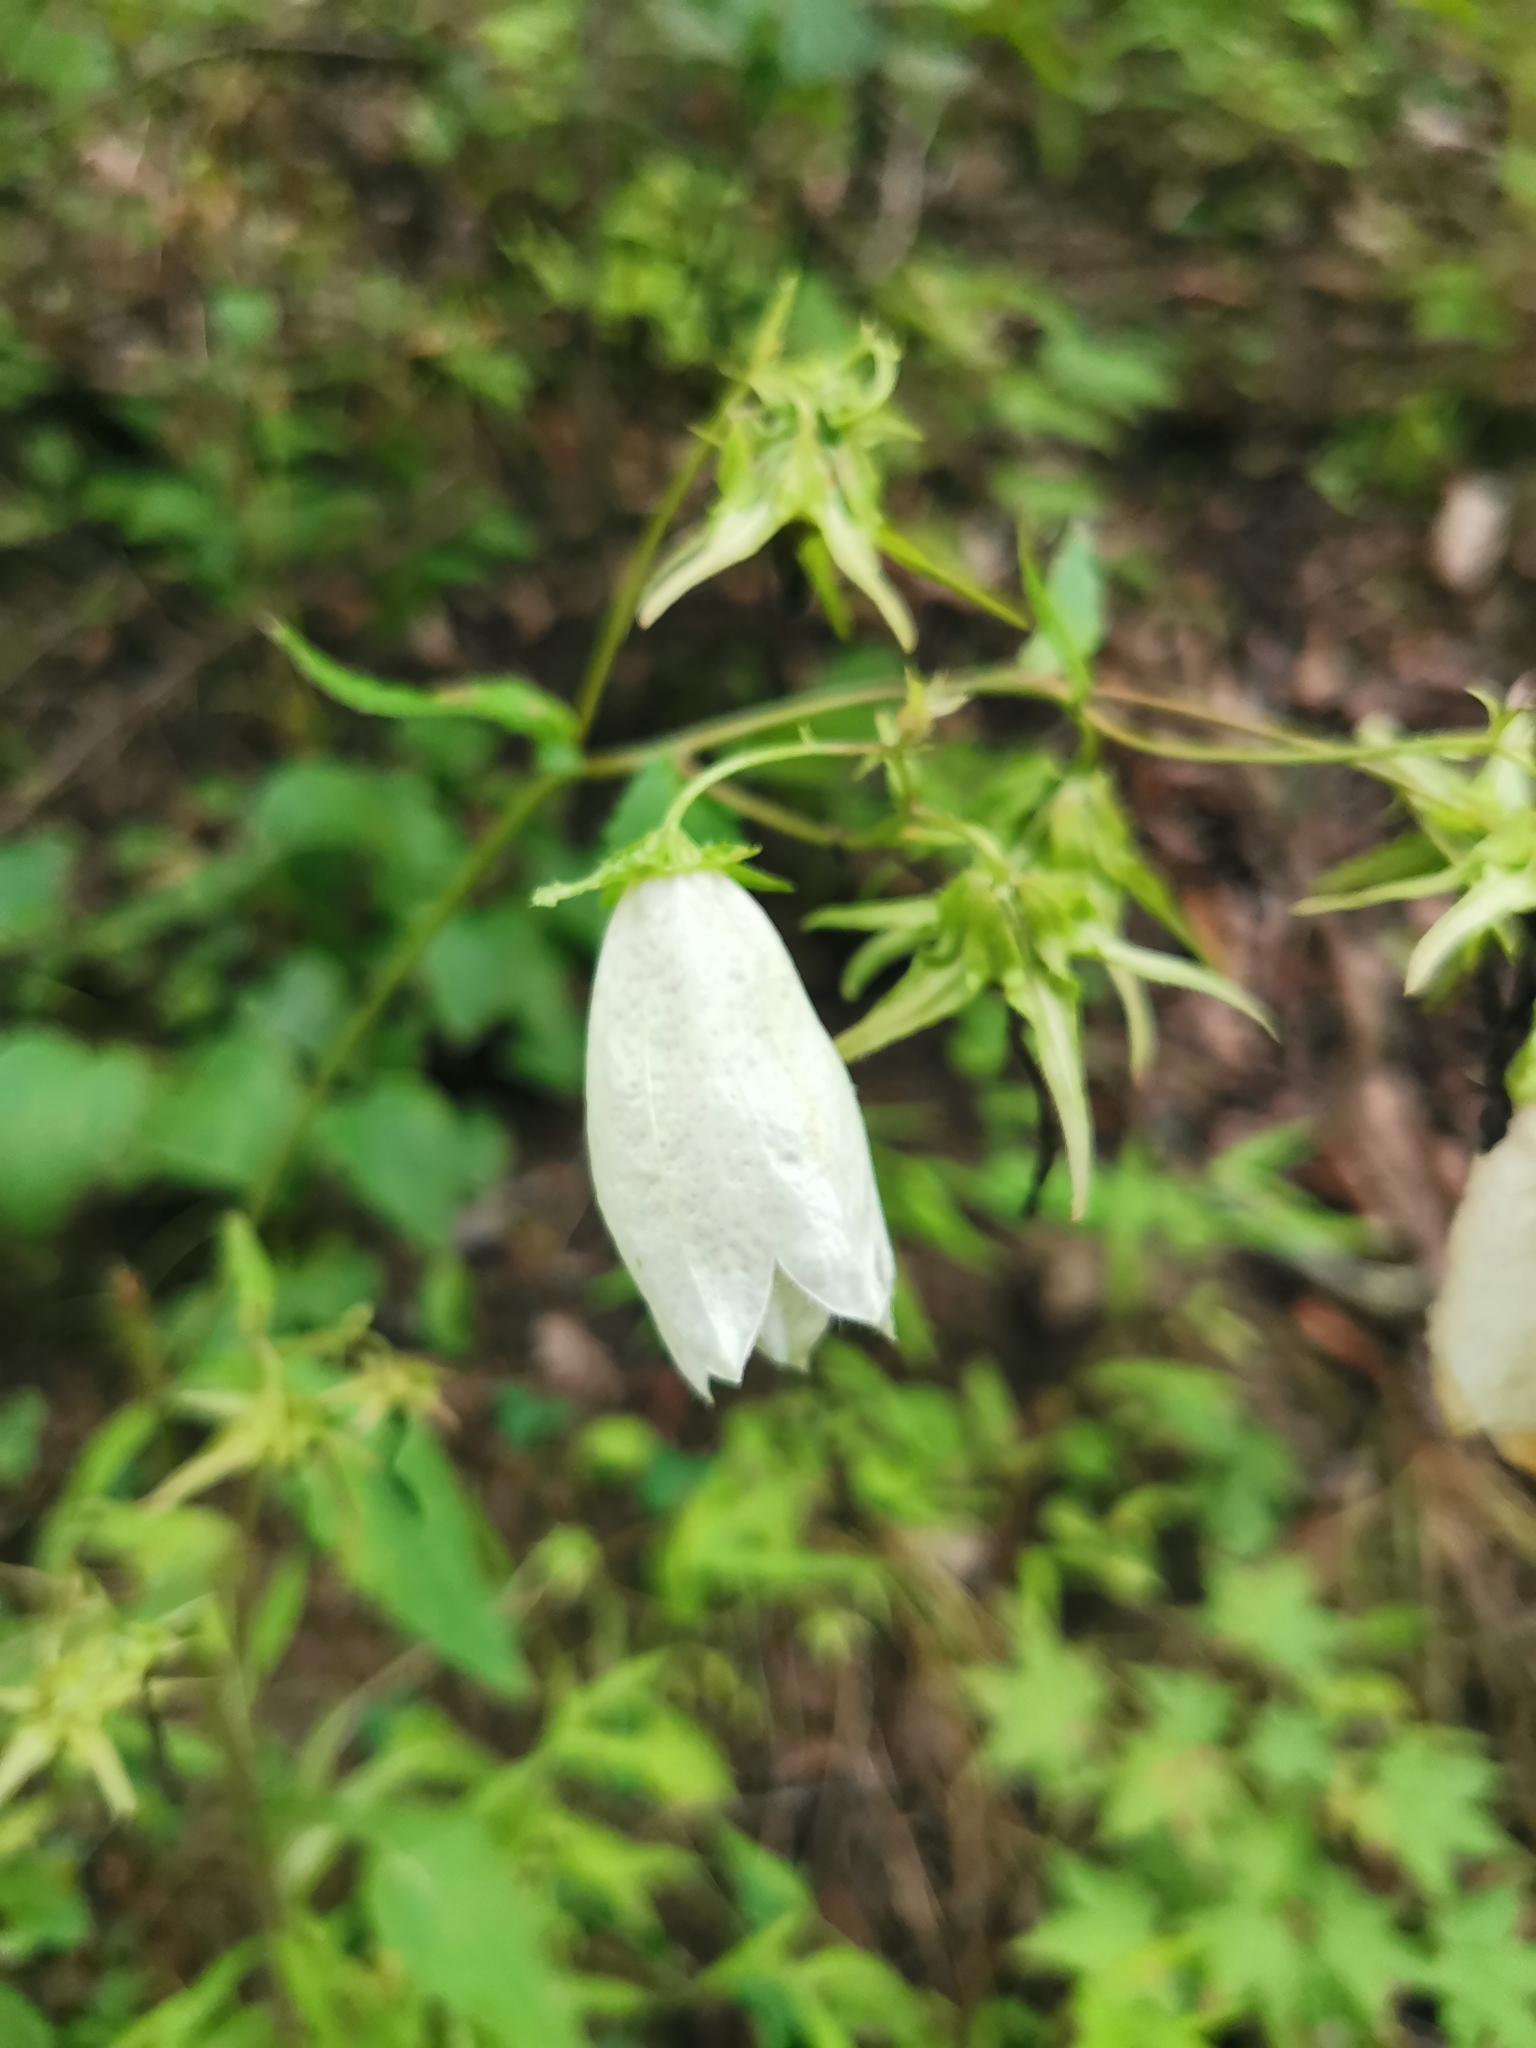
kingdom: Plantae
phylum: Tracheophyta
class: Magnoliopsida
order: Asterales
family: Campanulaceae
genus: Campanula
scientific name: Campanula punctata
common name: Spotted bellflower
